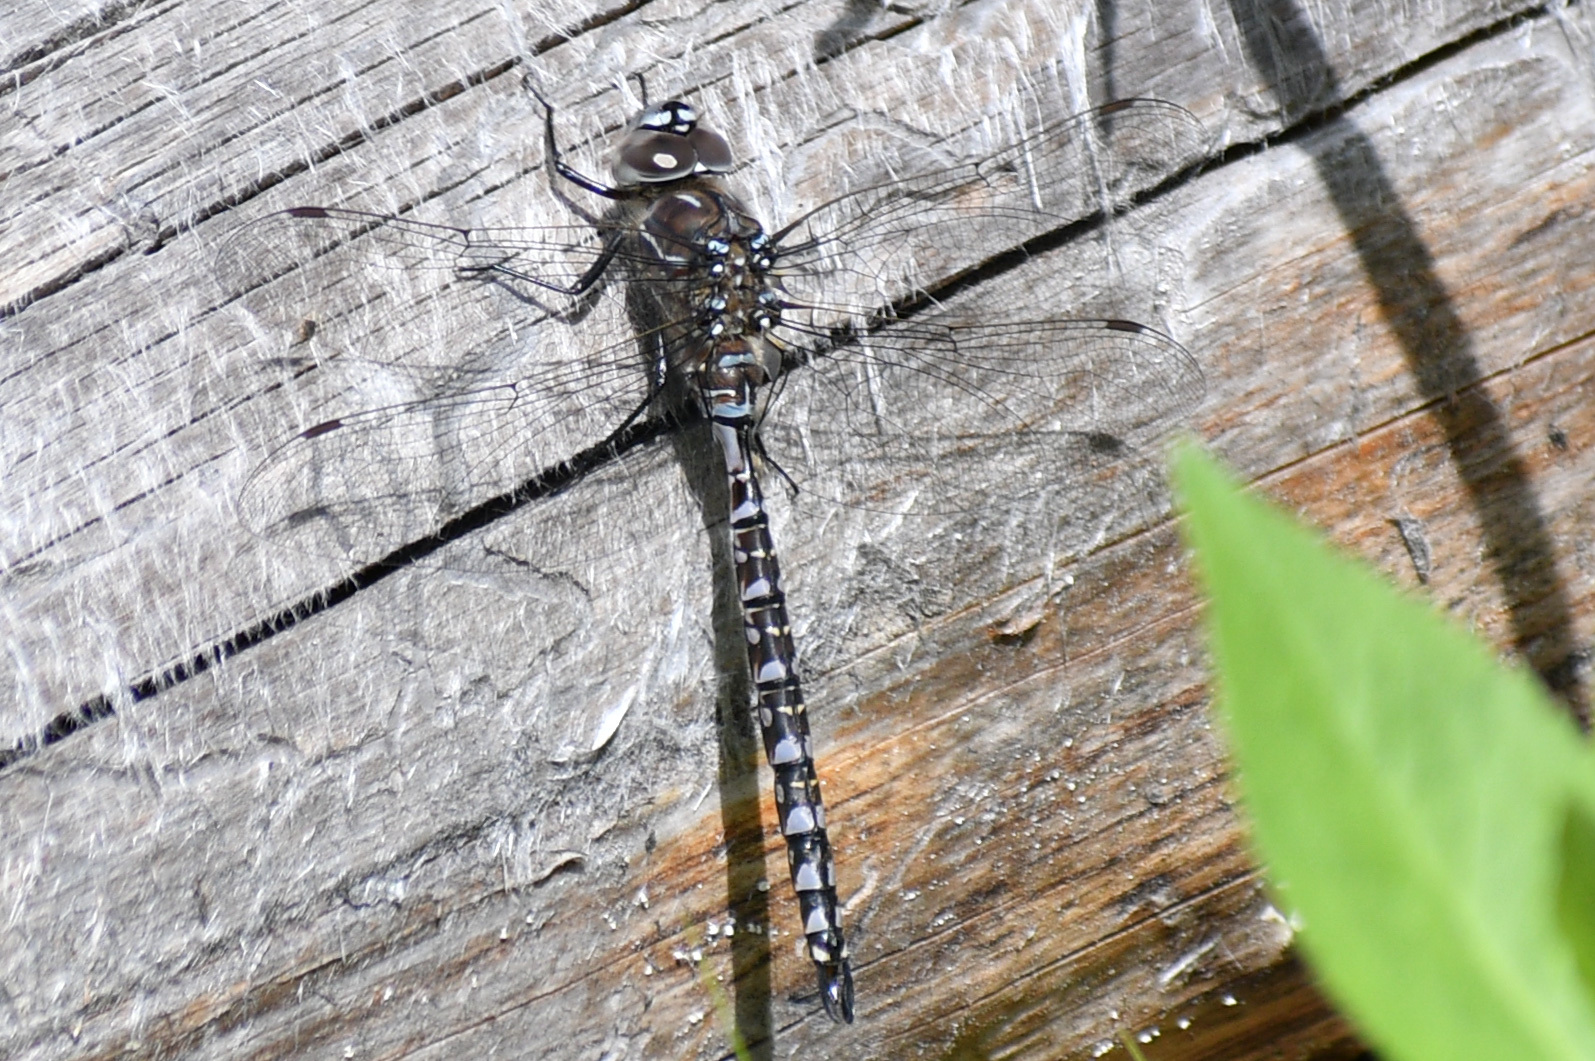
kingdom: Animalia
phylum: Arthropoda
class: Insecta
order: Odonata
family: Aeshnidae
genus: Aeshna
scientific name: Aeshna interrupta
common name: Variable darner
